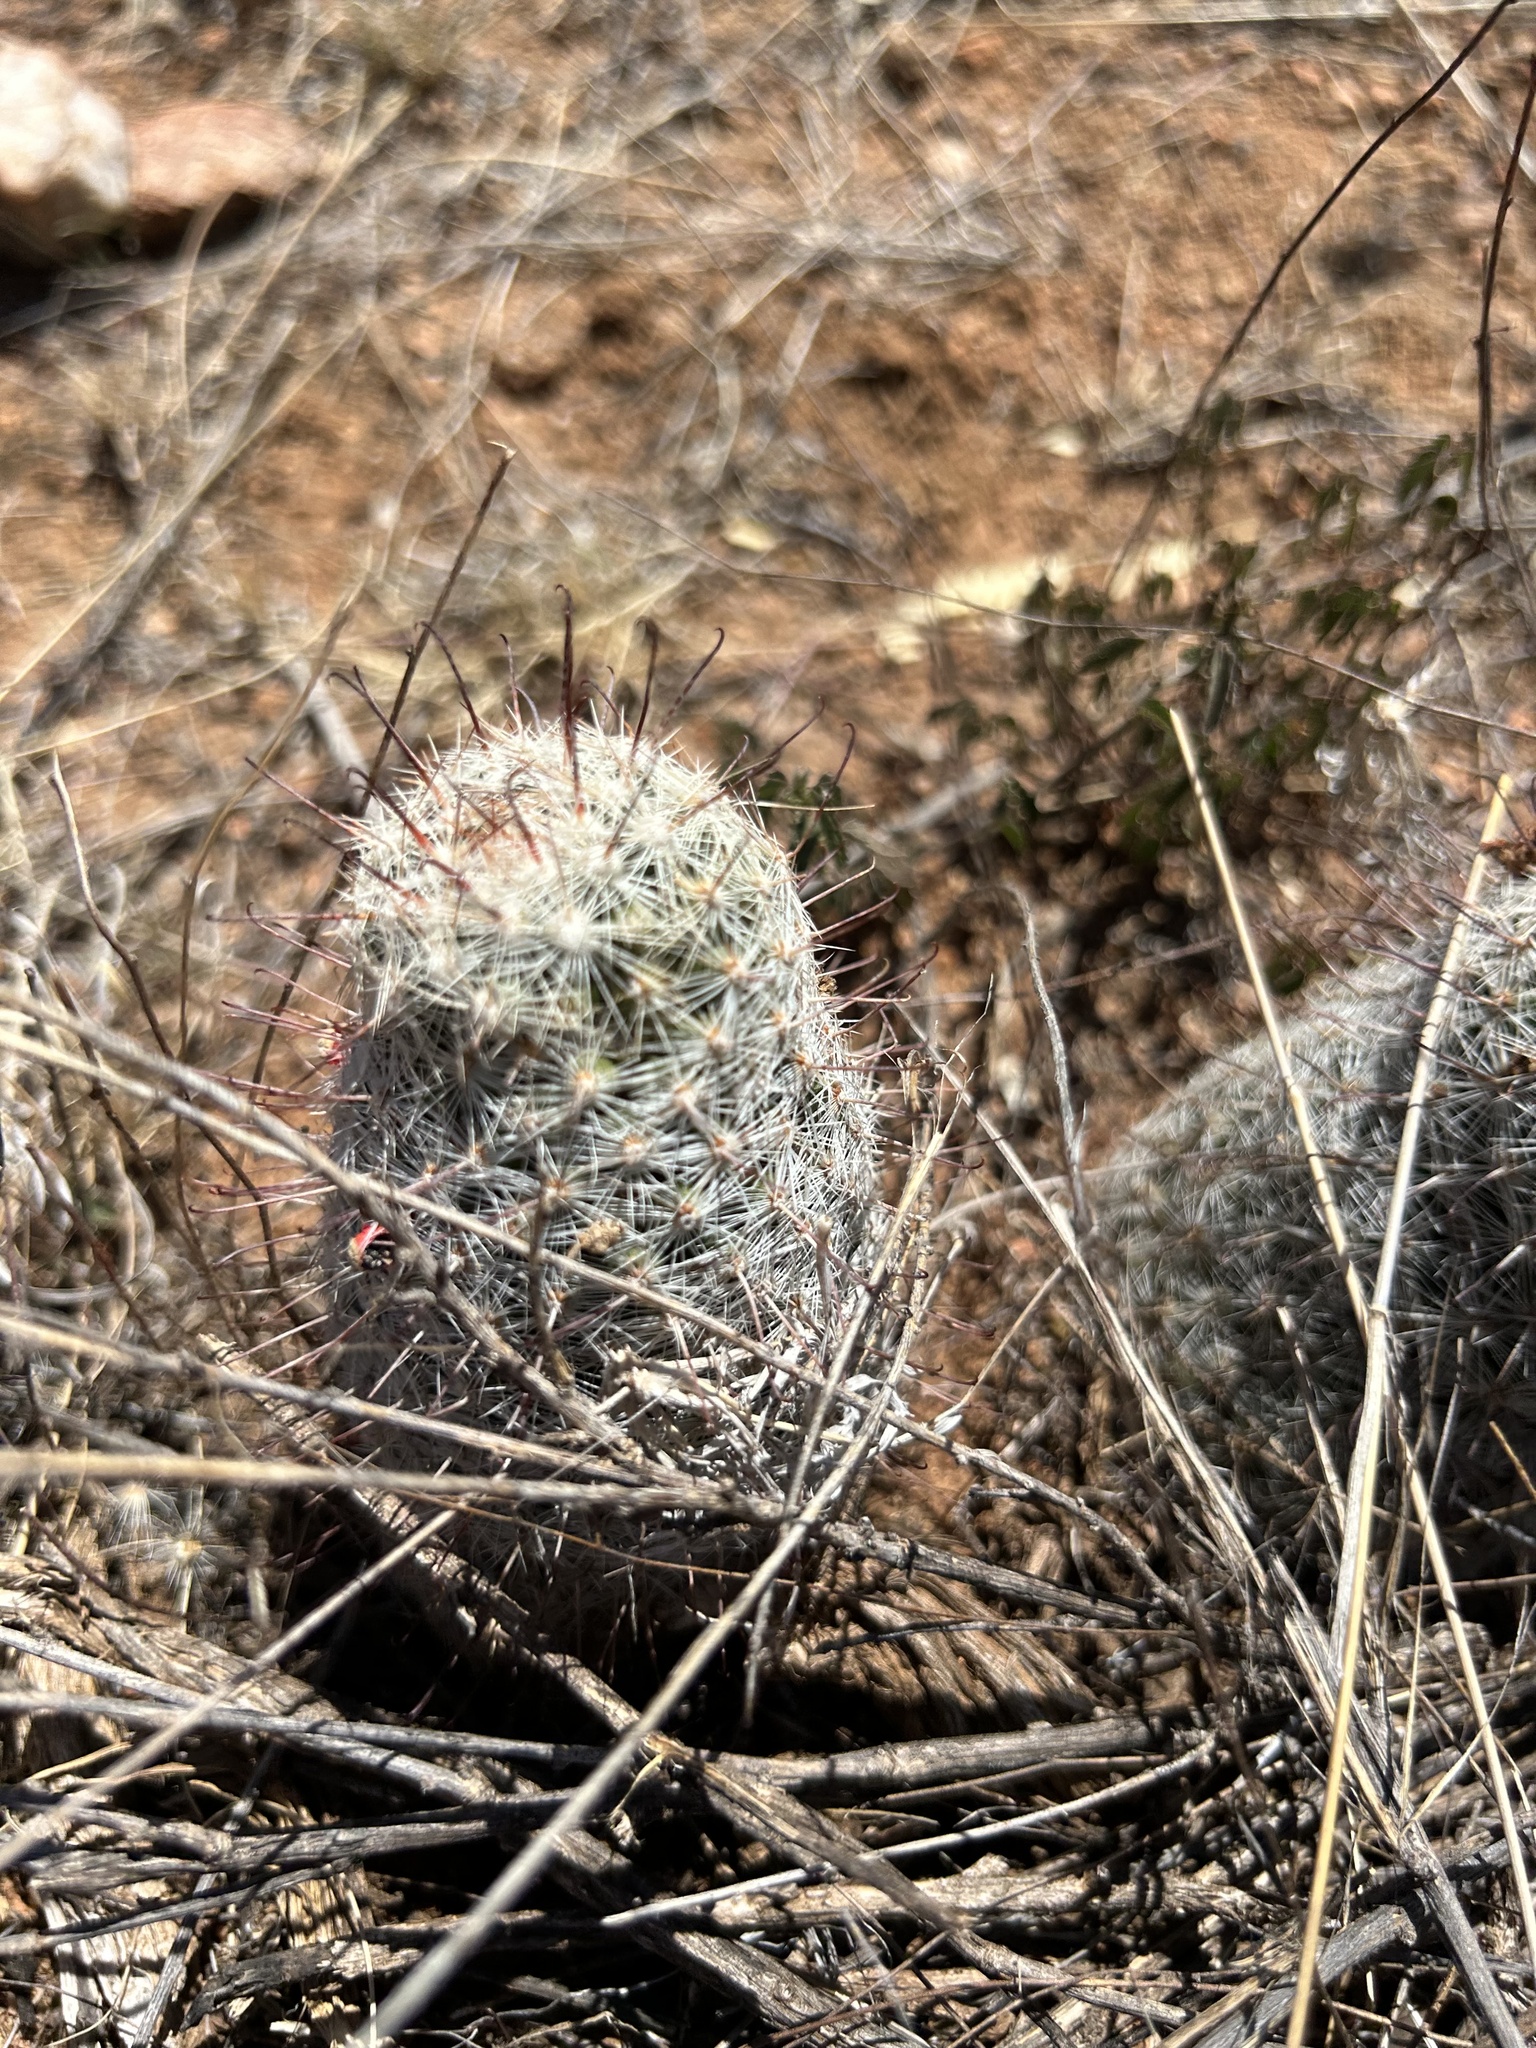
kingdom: Plantae
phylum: Tracheophyta
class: Magnoliopsida
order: Caryophyllales
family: Cactaceae
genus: Cochemiea
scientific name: Cochemiea grahamii
